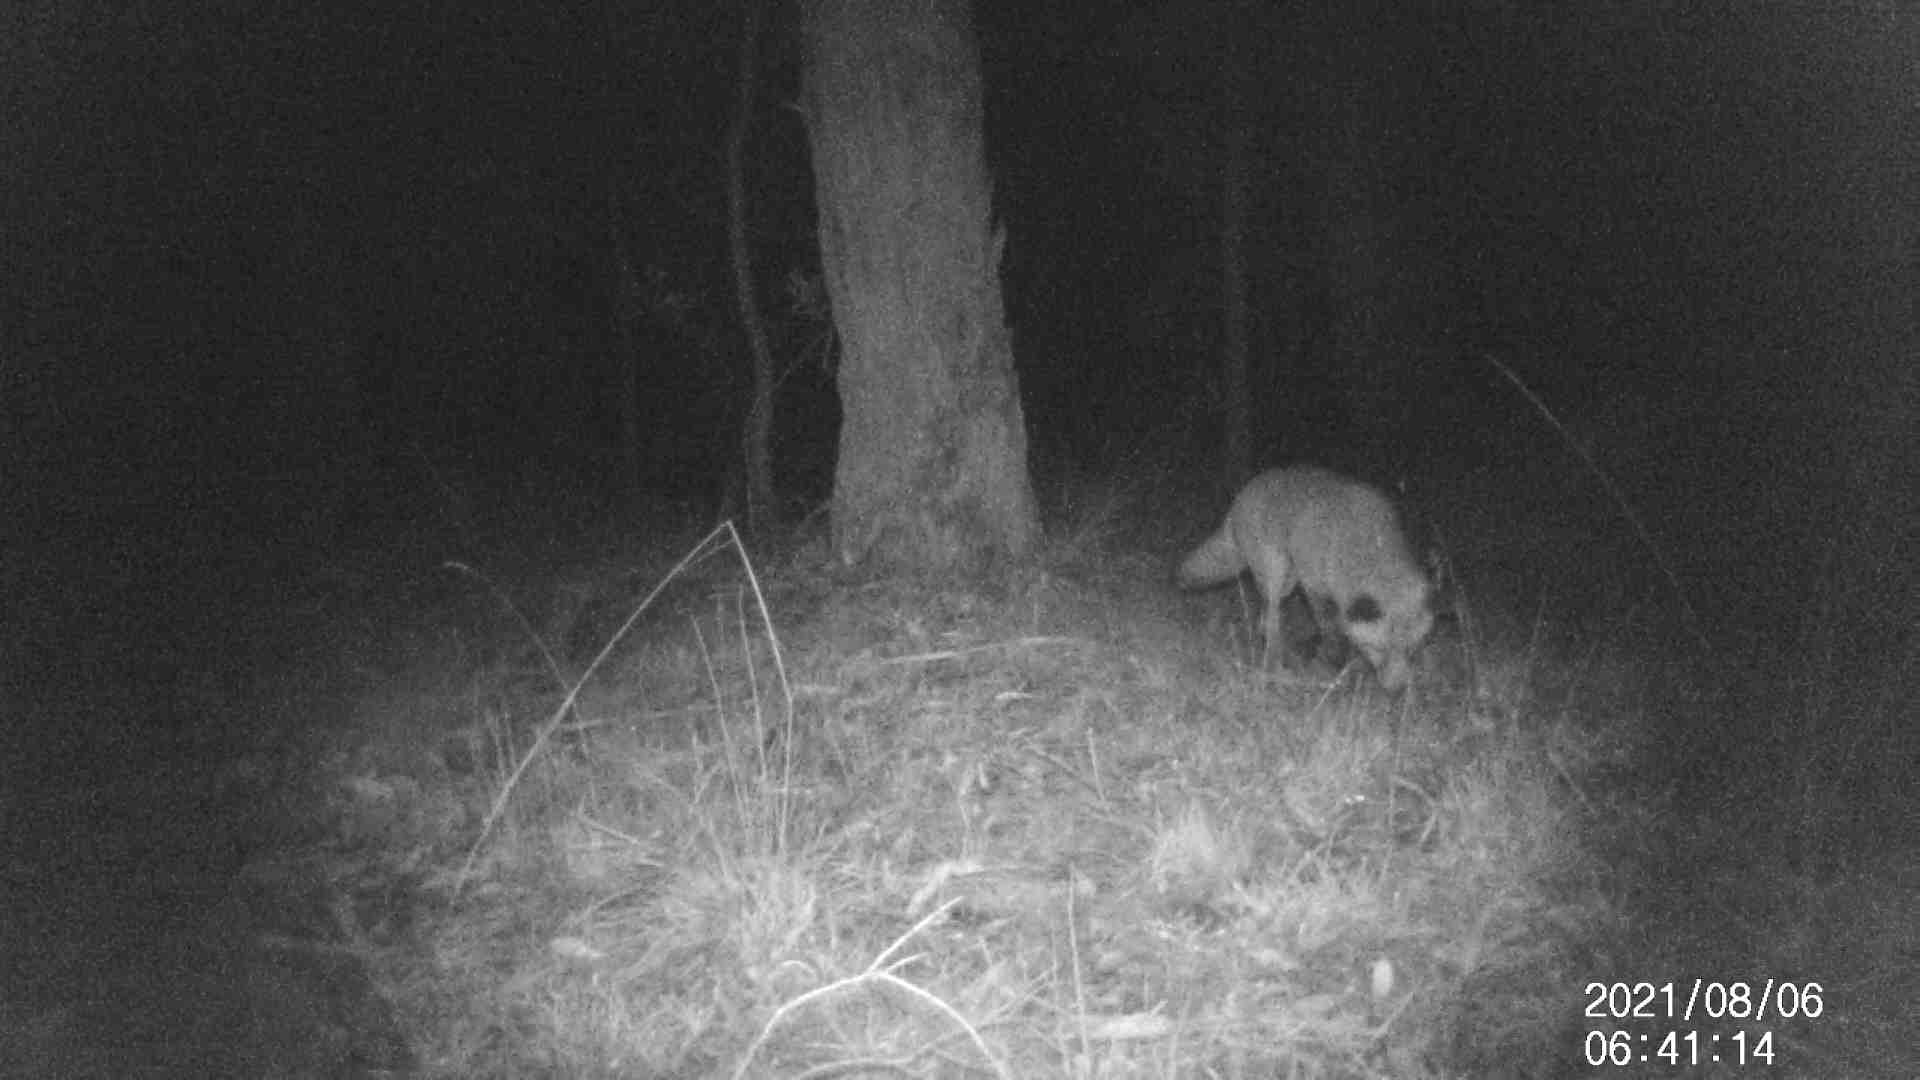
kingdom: Animalia
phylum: Chordata
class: Mammalia
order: Carnivora
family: Canidae
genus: Vulpes
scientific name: Vulpes vulpes
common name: Red fox
